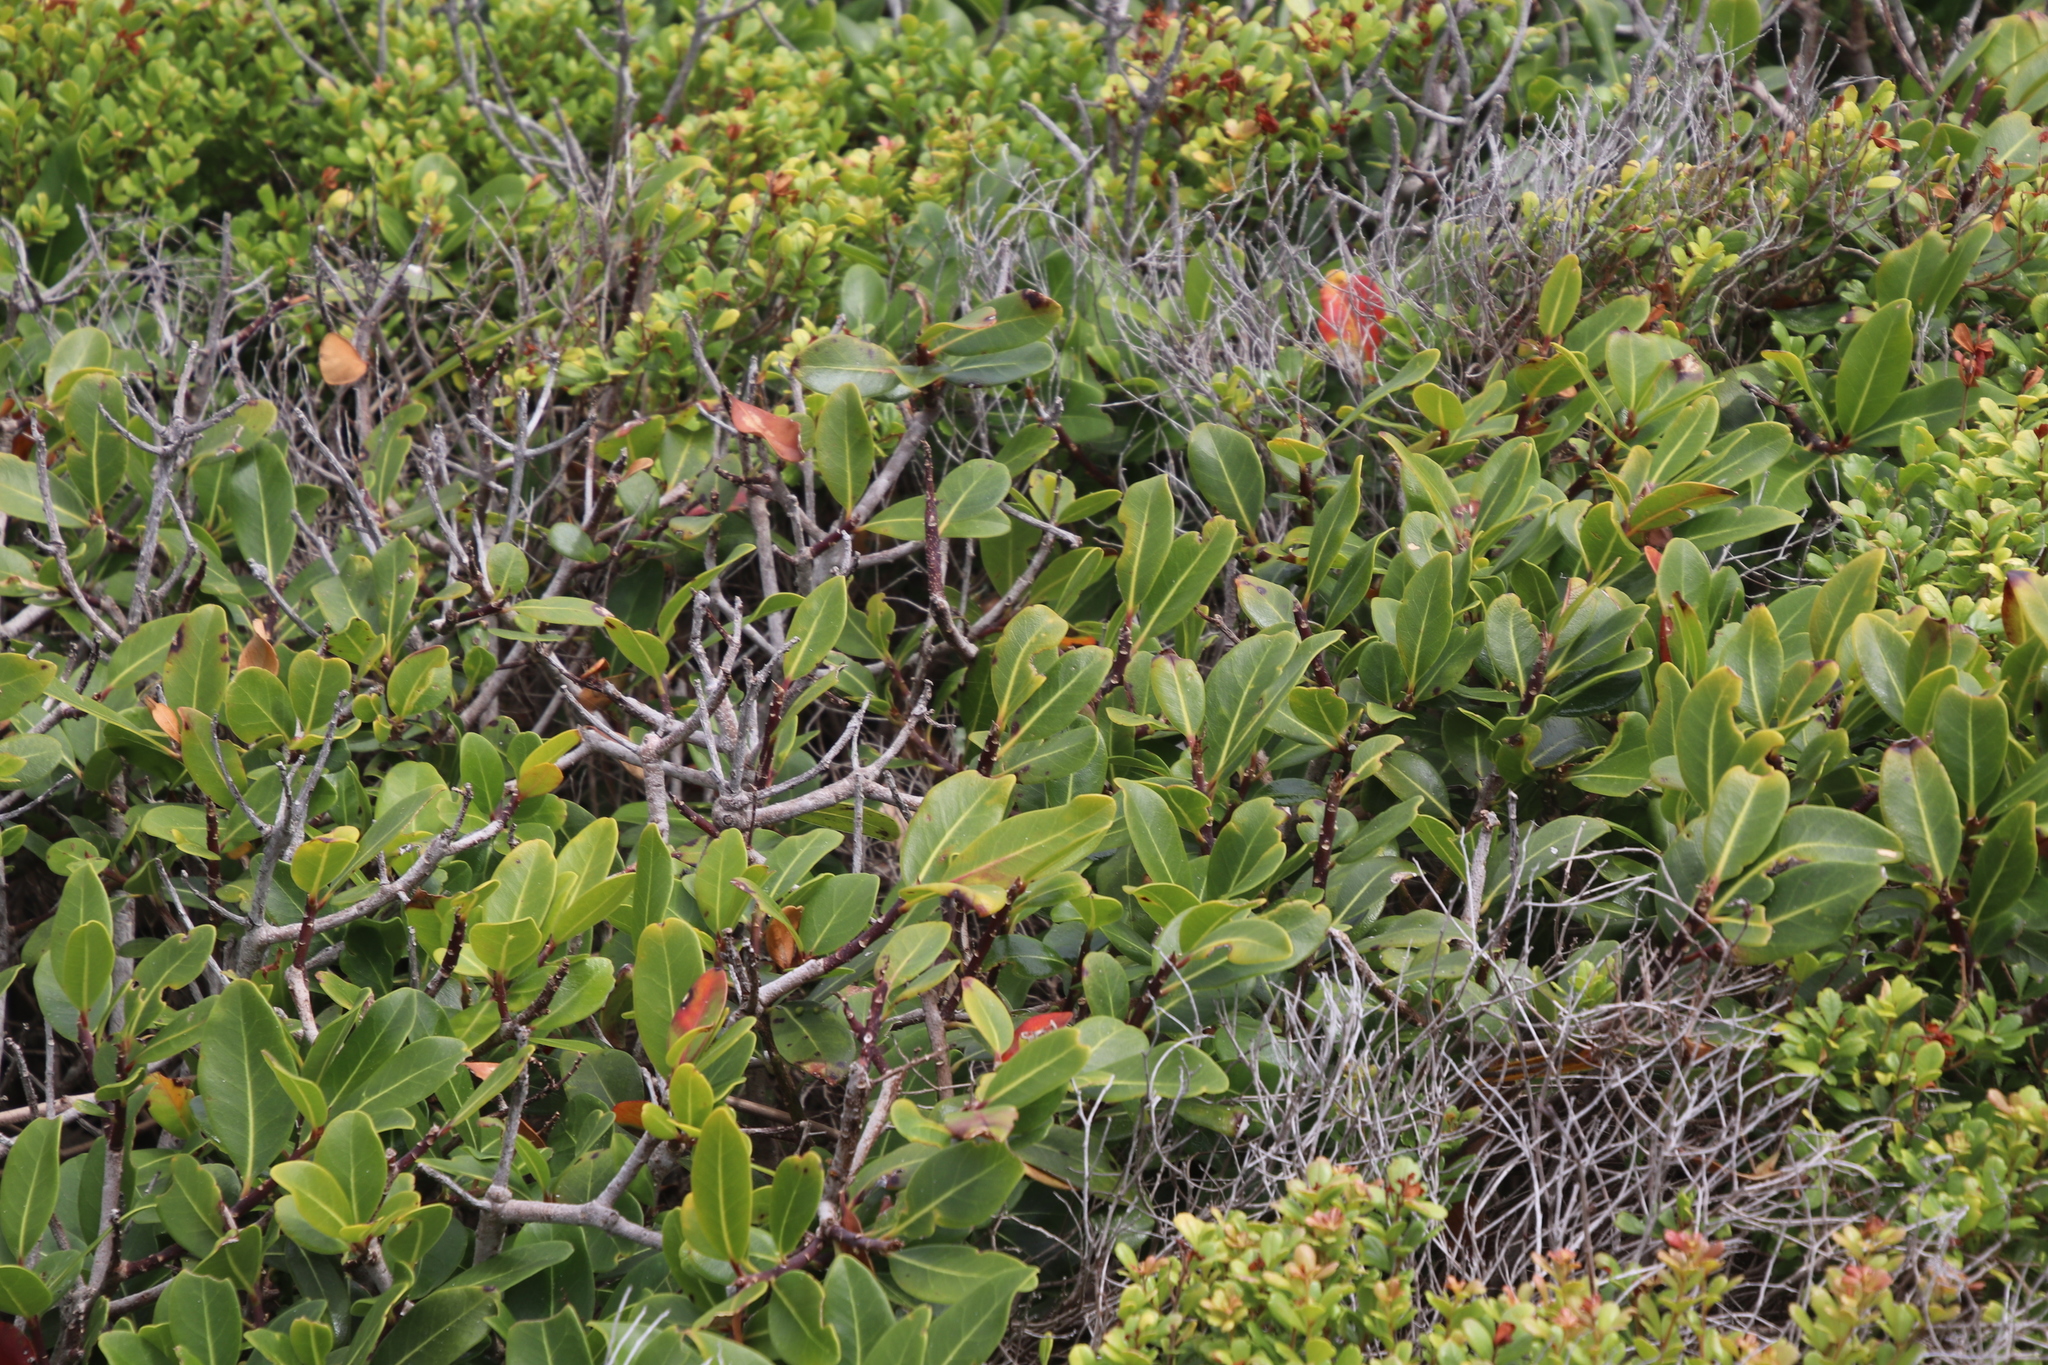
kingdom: Plantae
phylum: Tracheophyta
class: Magnoliopsida
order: Ericales
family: Sapotaceae
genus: Sideroxylon
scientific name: Sideroxylon inerme
